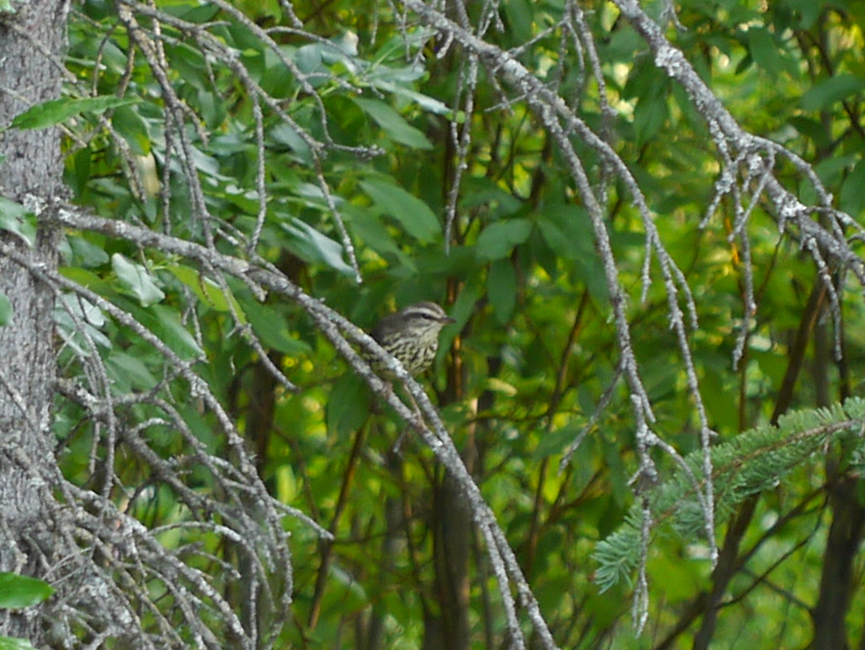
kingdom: Animalia
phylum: Chordata
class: Aves
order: Passeriformes
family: Parulidae
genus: Parkesia
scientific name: Parkesia noveboracensis
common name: Northern waterthrush
